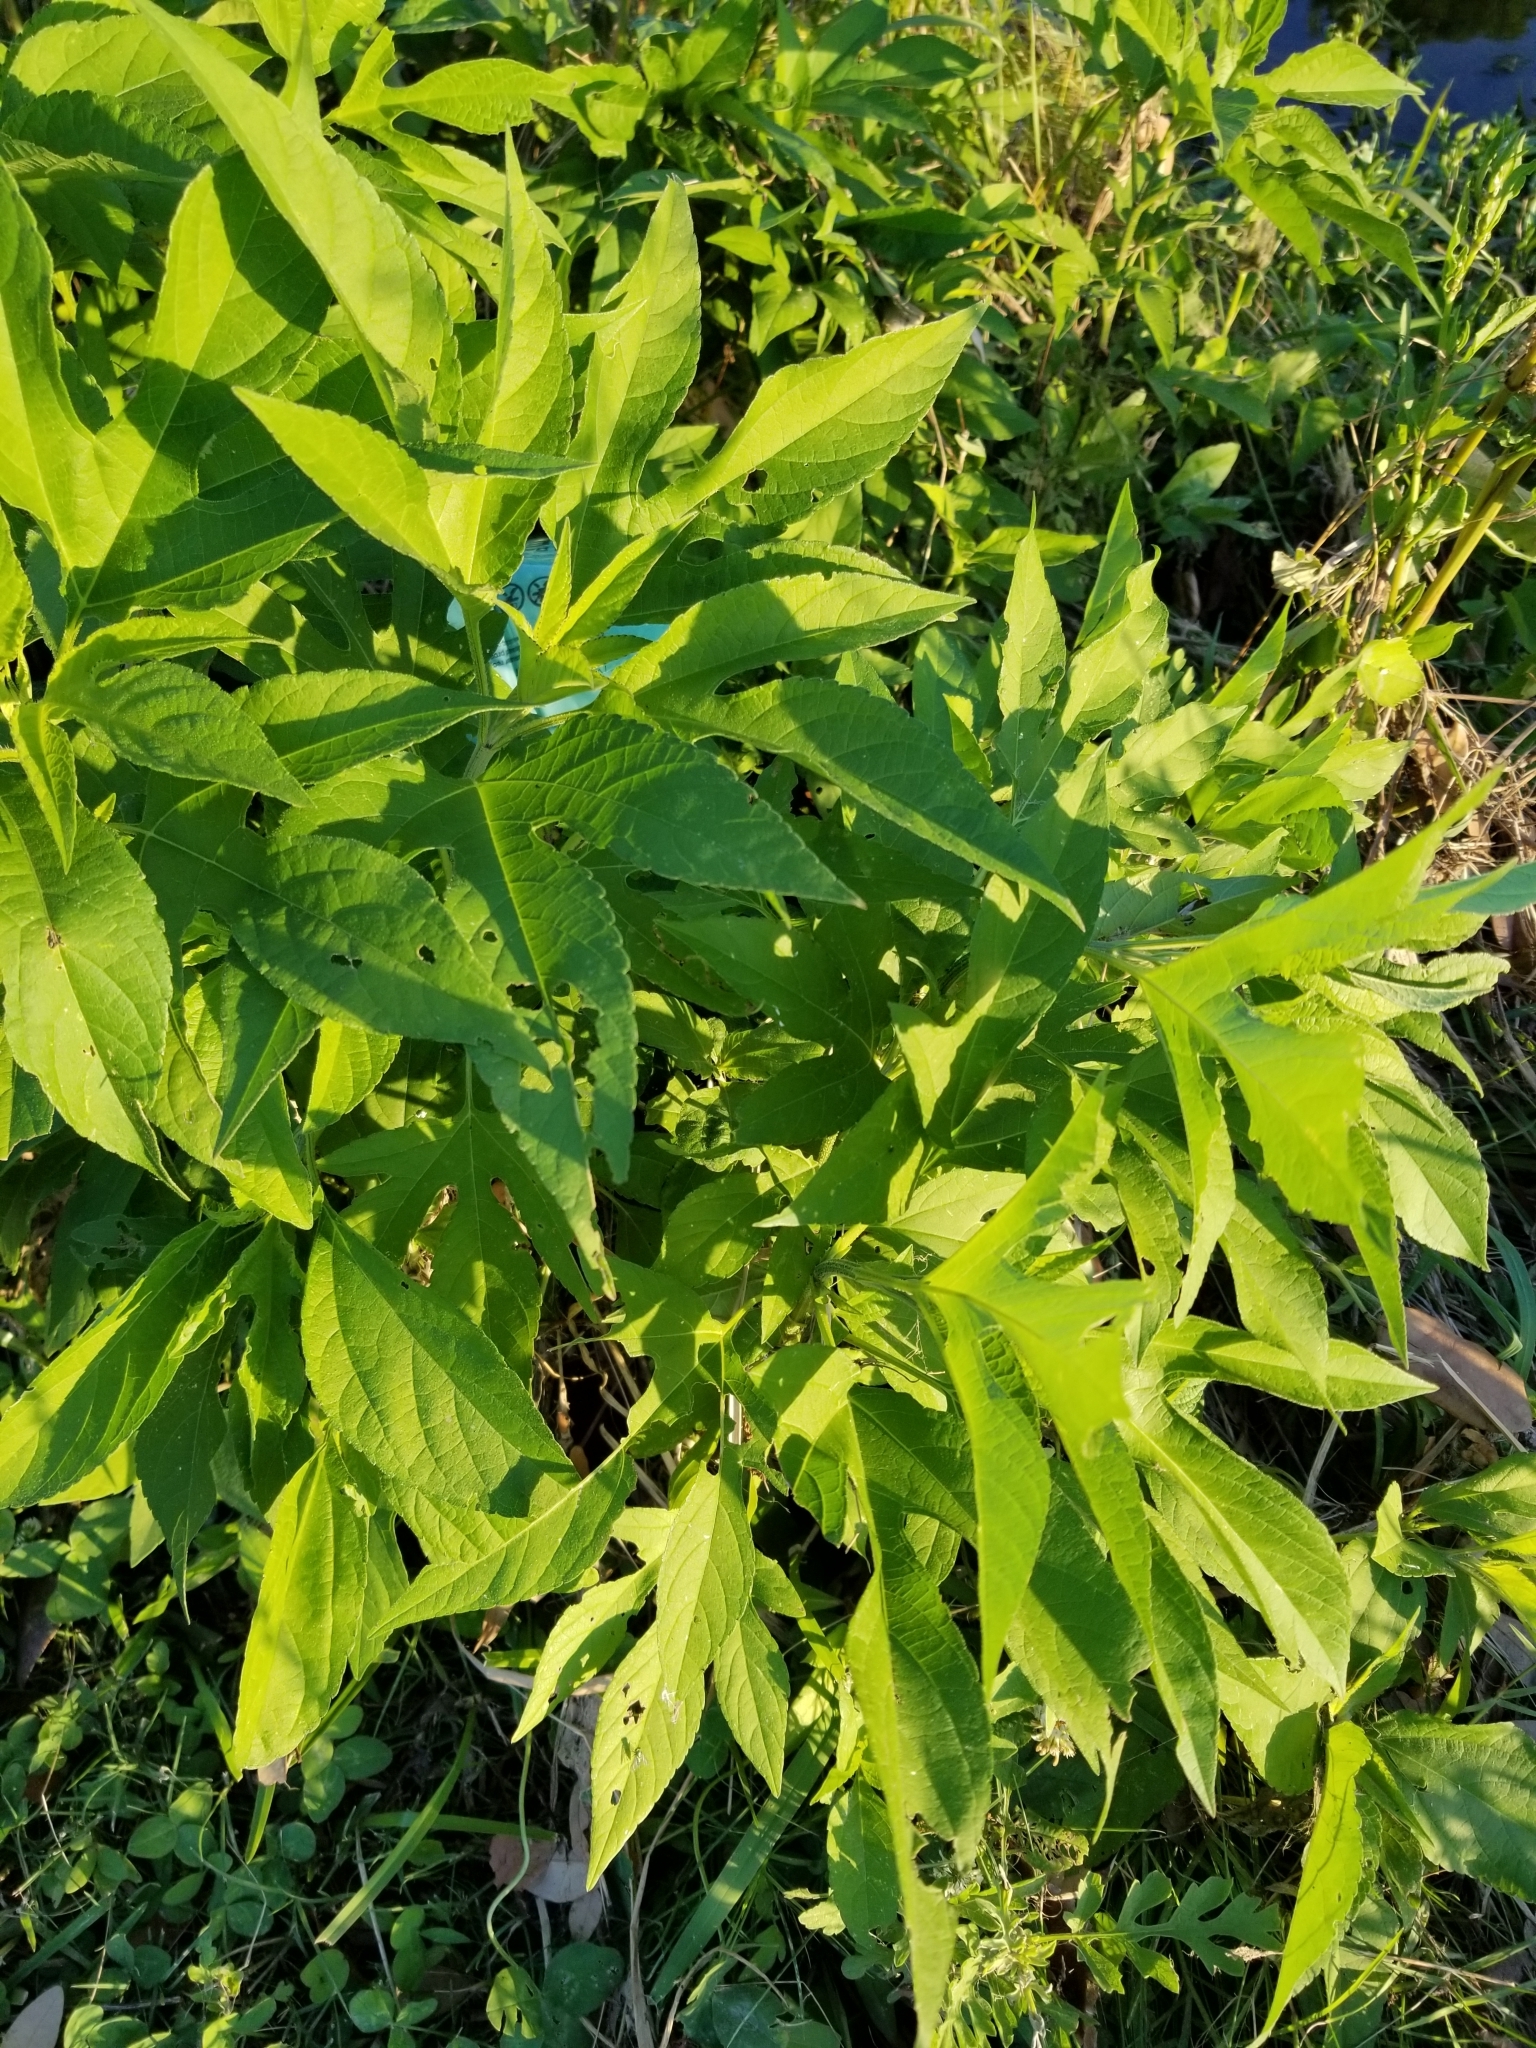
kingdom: Plantae
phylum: Tracheophyta
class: Magnoliopsida
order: Asterales
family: Asteraceae
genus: Ambrosia
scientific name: Ambrosia trifida
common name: Giant ragweed
